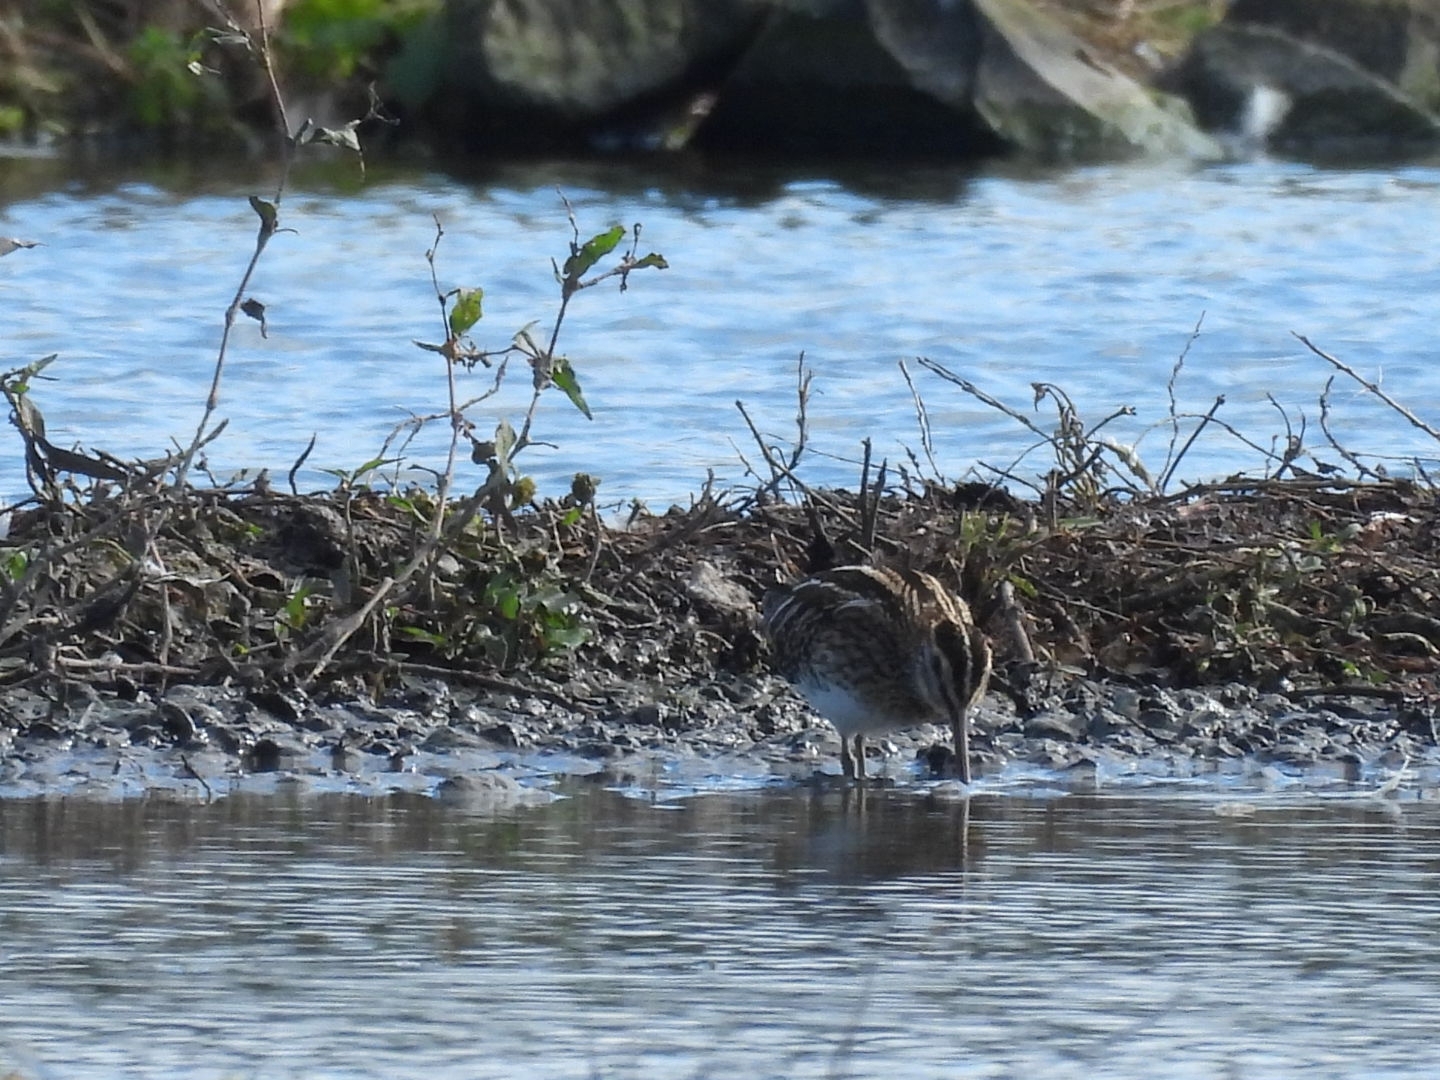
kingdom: Animalia
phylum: Chordata
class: Aves
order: Charadriiformes
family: Scolopacidae
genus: Gallinago
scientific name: Gallinago gallinago
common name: Common snipe
